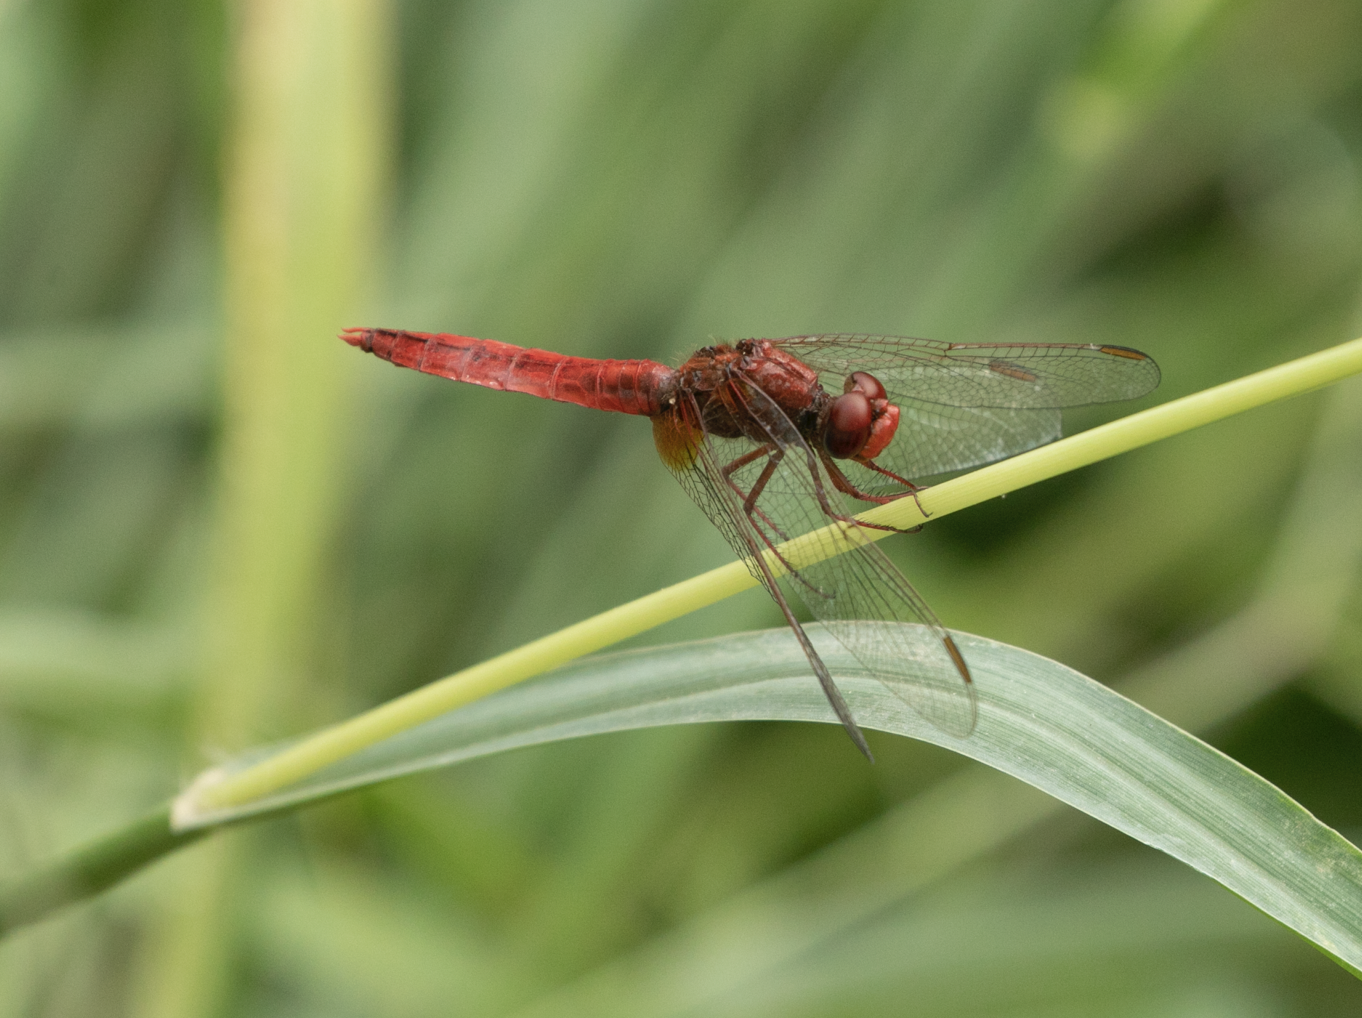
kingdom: Animalia
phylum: Arthropoda
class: Insecta
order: Odonata
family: Libellulidae
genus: Crocothemis
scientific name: Crocothemis erythraea
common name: Scarlet dragonfly
